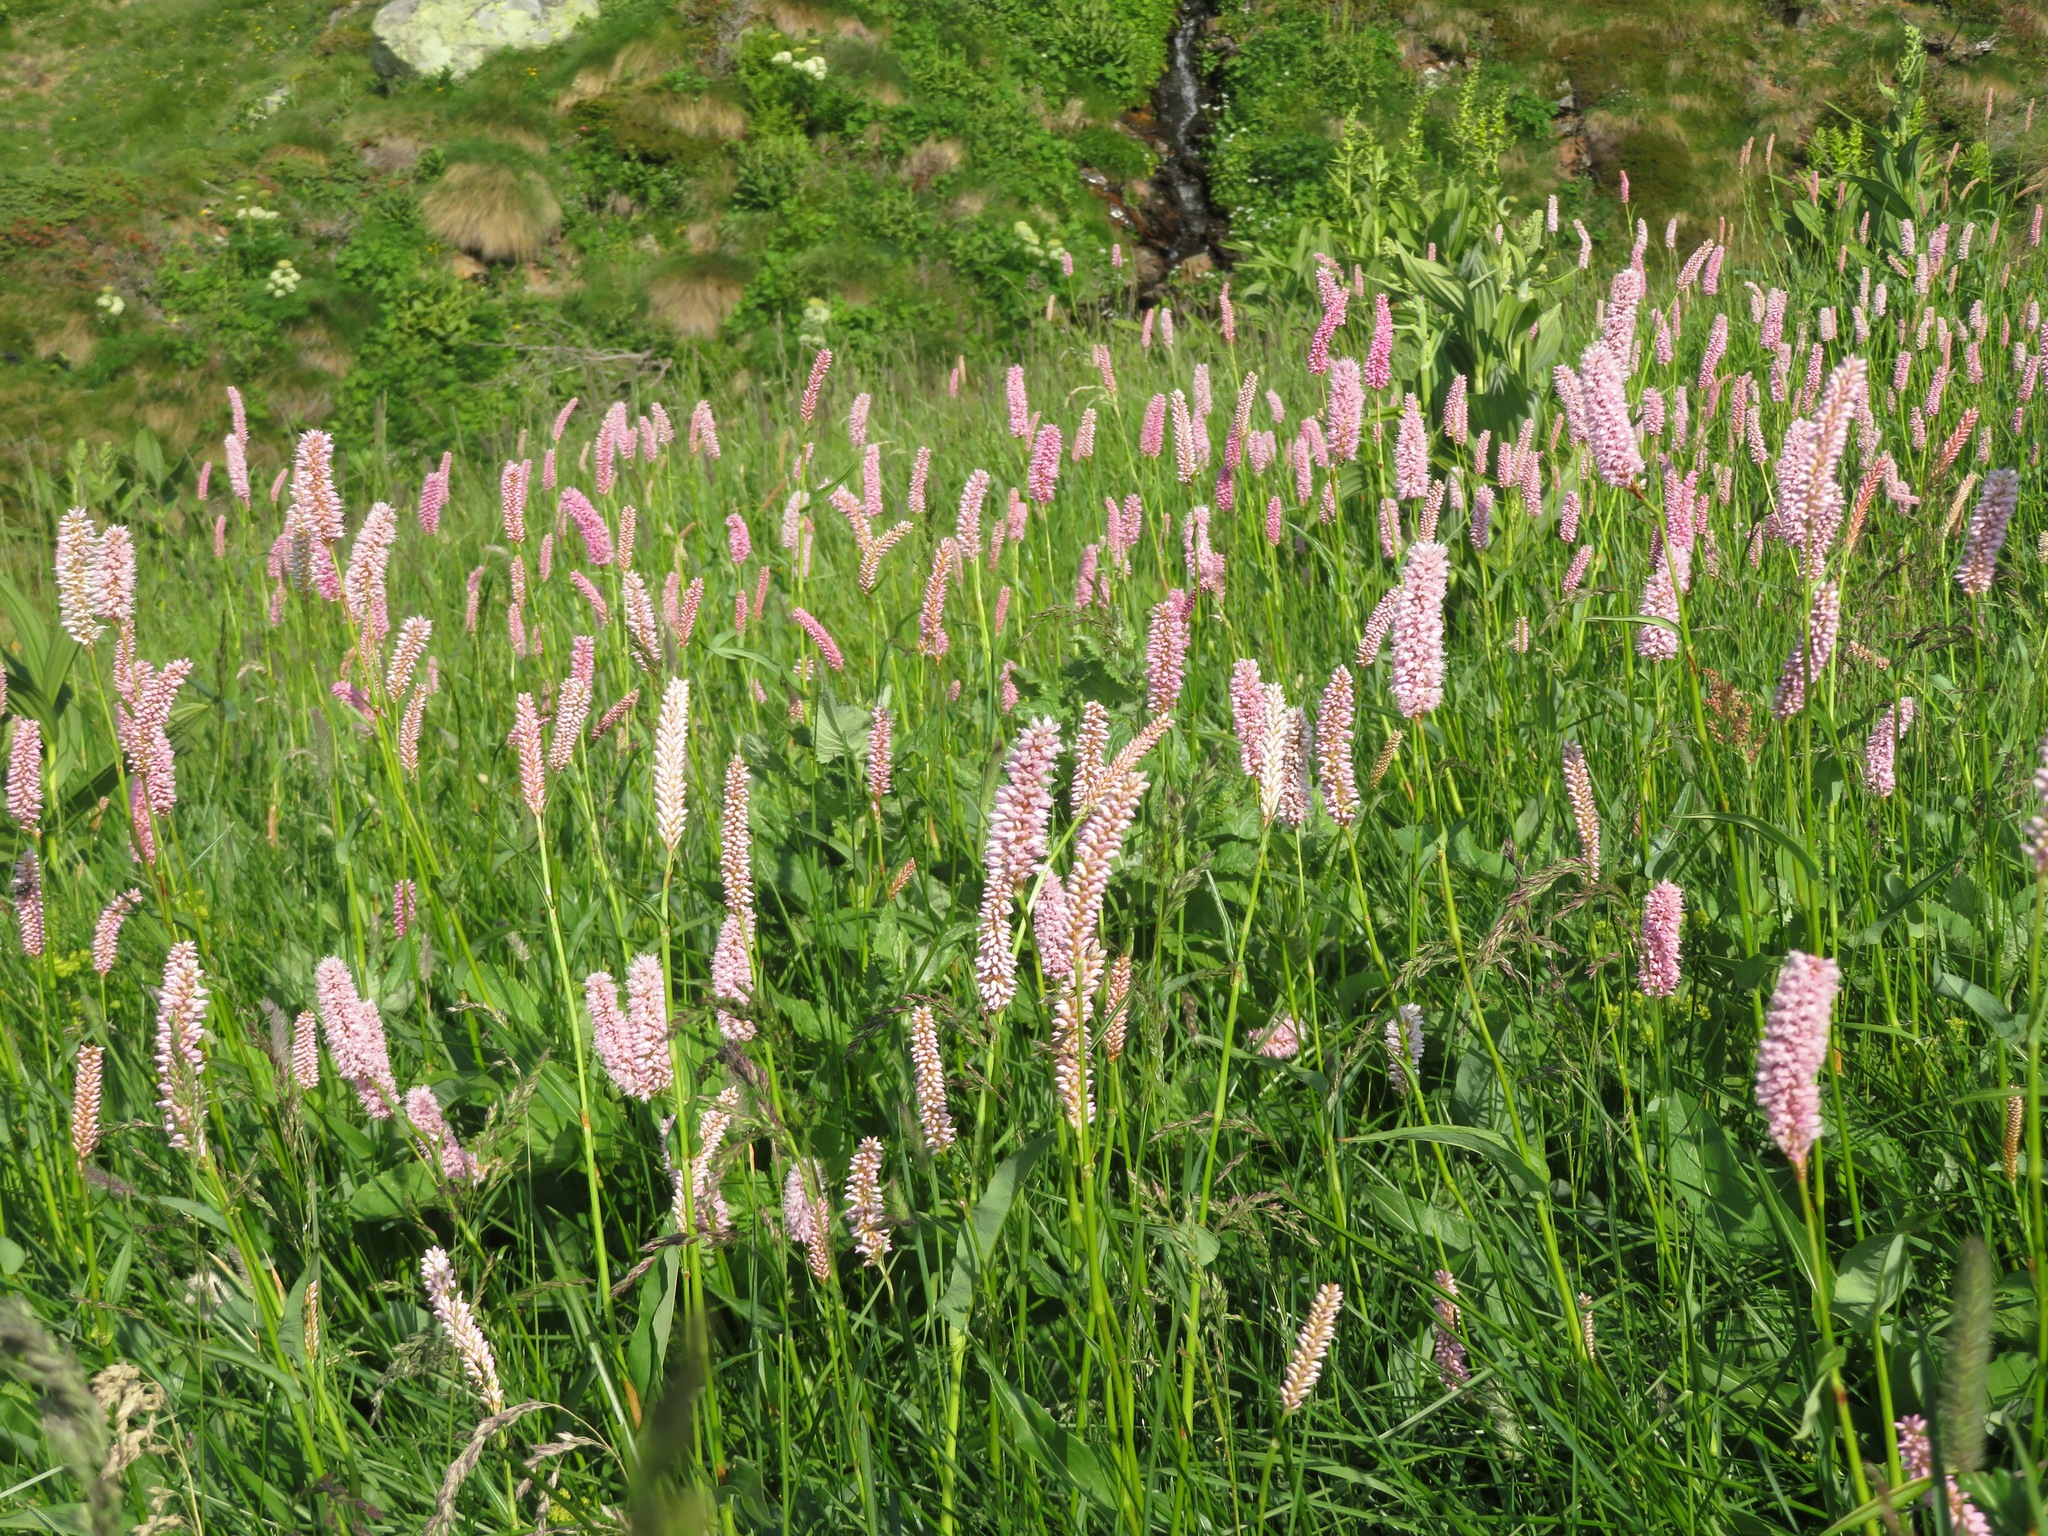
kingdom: Plantae
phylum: Tracheophyta
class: Magnoliopsida
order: Caryophyllales
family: Polygonaceae
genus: Bistorta
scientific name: Bistorta officinalis
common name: Common bistort
